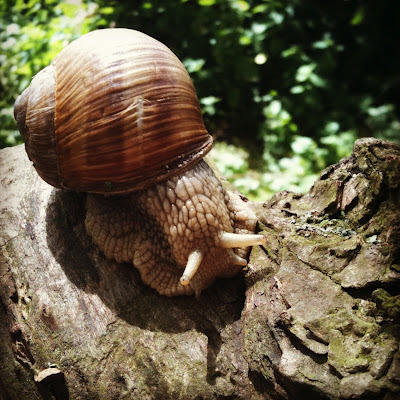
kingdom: Animalia
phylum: Mollusca
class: Gastropoda
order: Stylommatophora
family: Helicidae
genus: Helix
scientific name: Helix pomatia
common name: Roman snail
